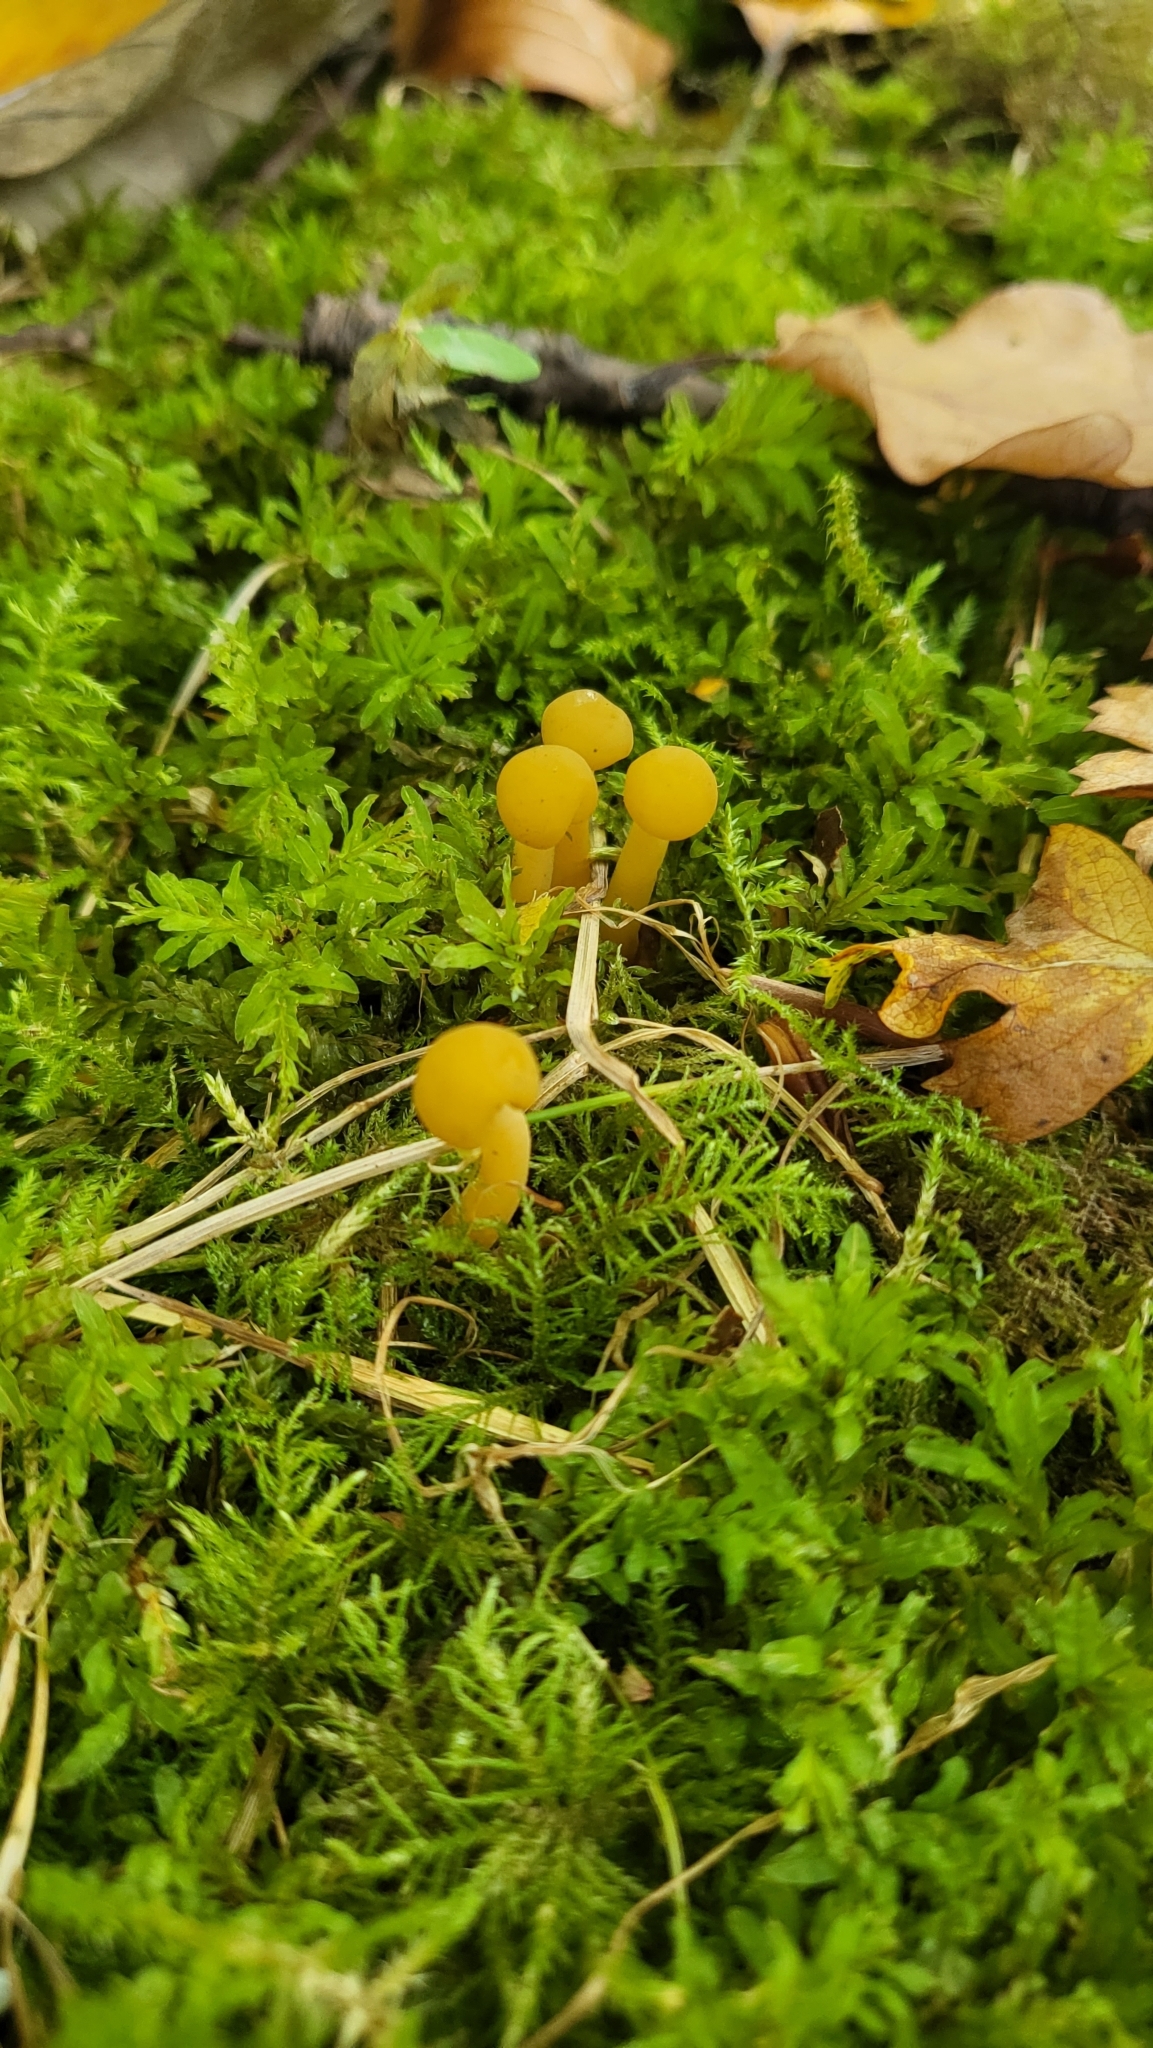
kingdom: Fungi
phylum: Ascomycota
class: Leotiomycetes
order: Leotiales
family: Leotiaceae
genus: Leotia
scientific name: Leotia lubrica
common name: Jellybaby
